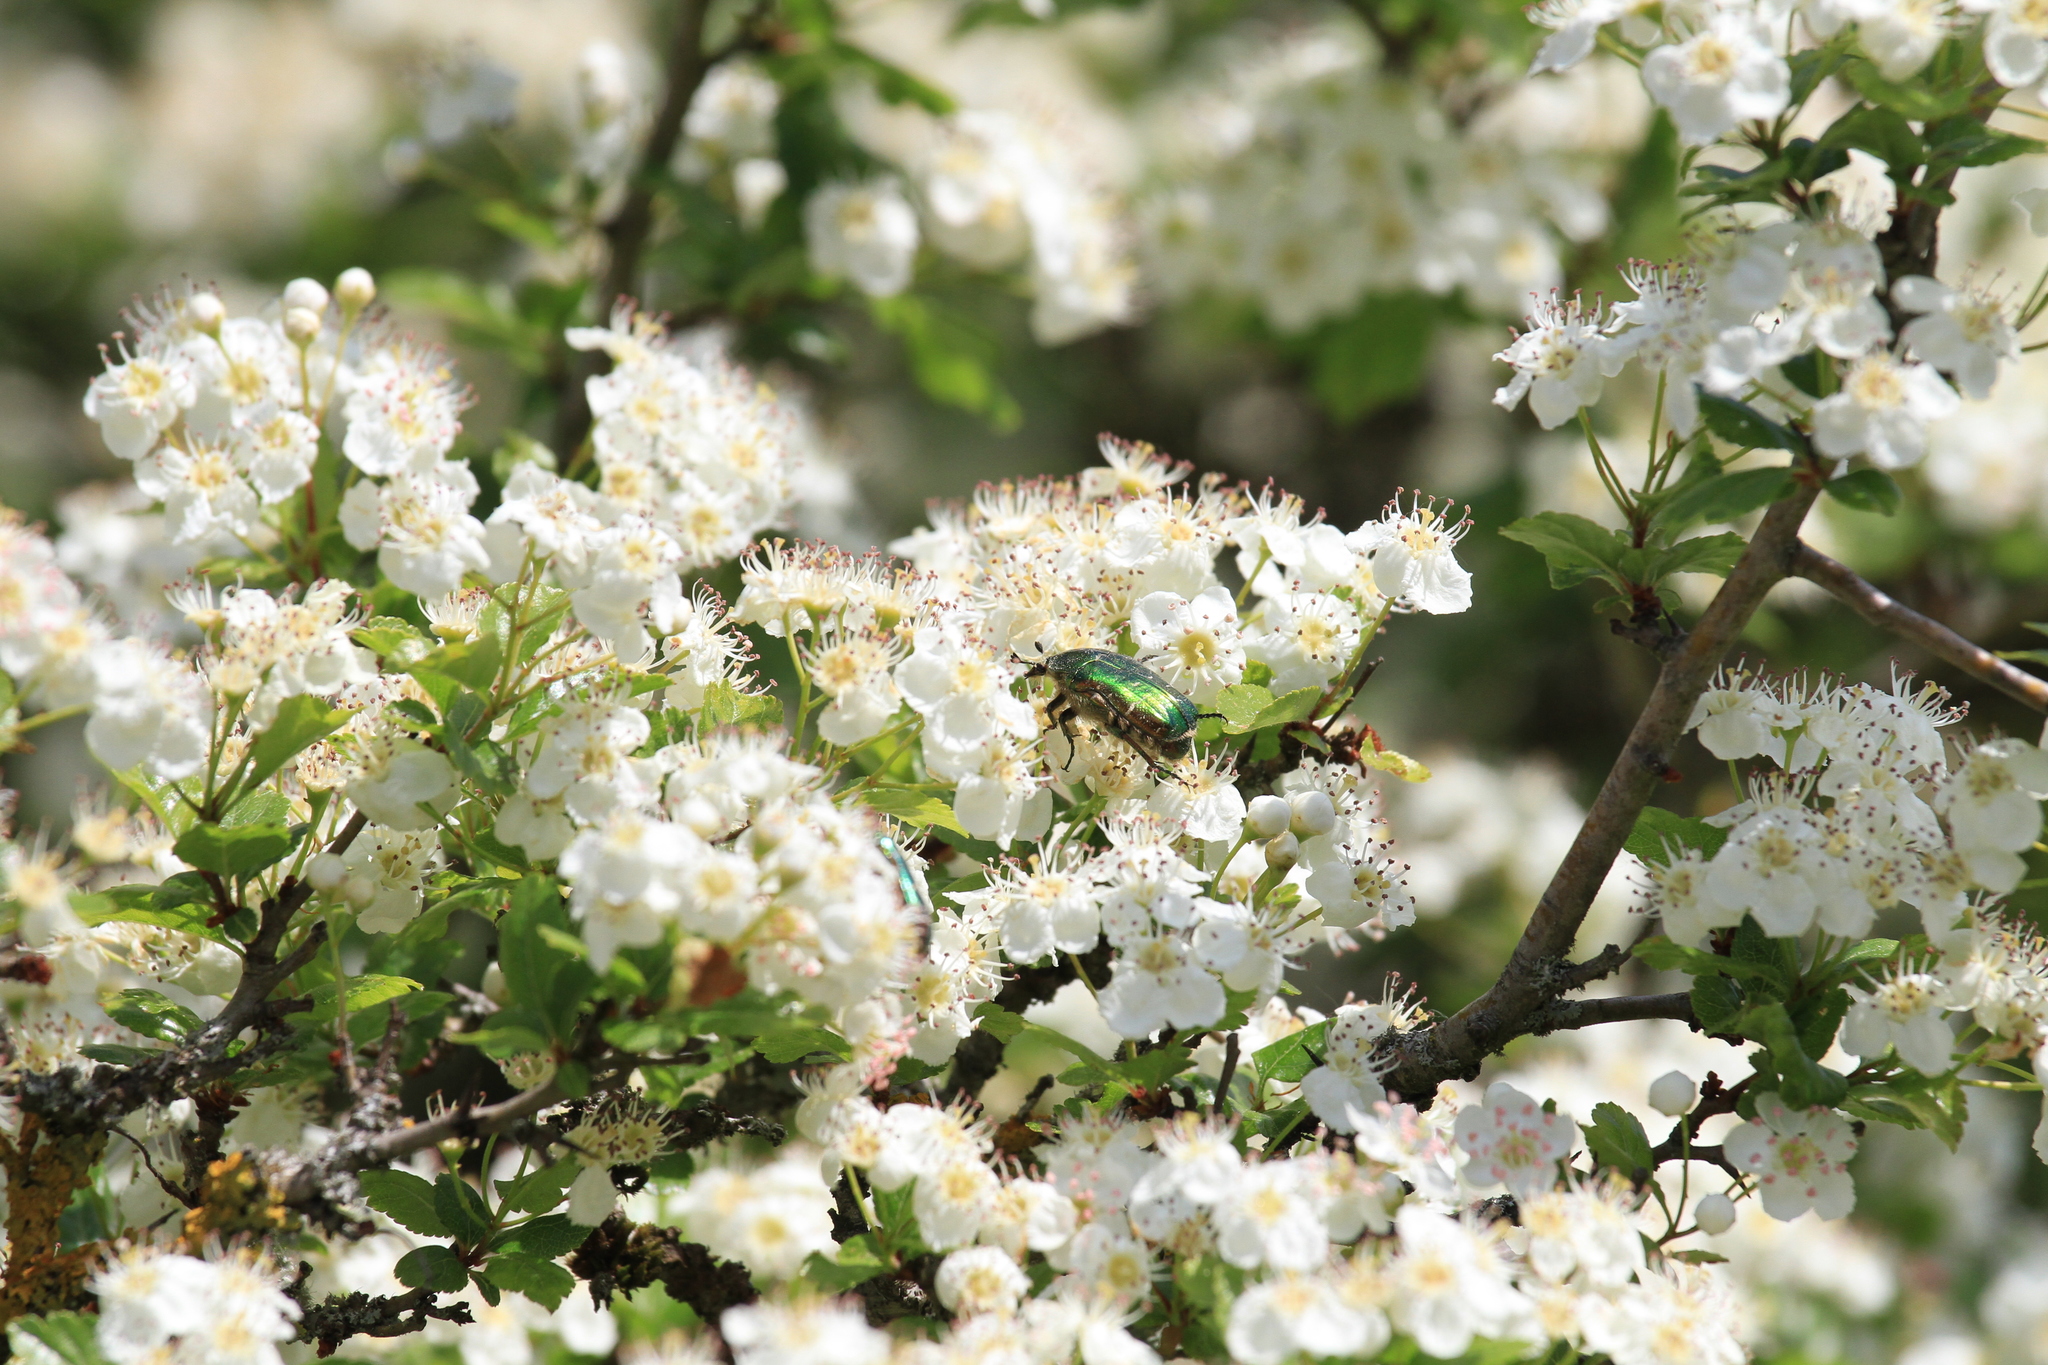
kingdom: Animalia
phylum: Arthropoda
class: Insecta
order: Coleoptera
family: Scarabaeidae
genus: Cetonia
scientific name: Cetonia aurata
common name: Rose chafer
